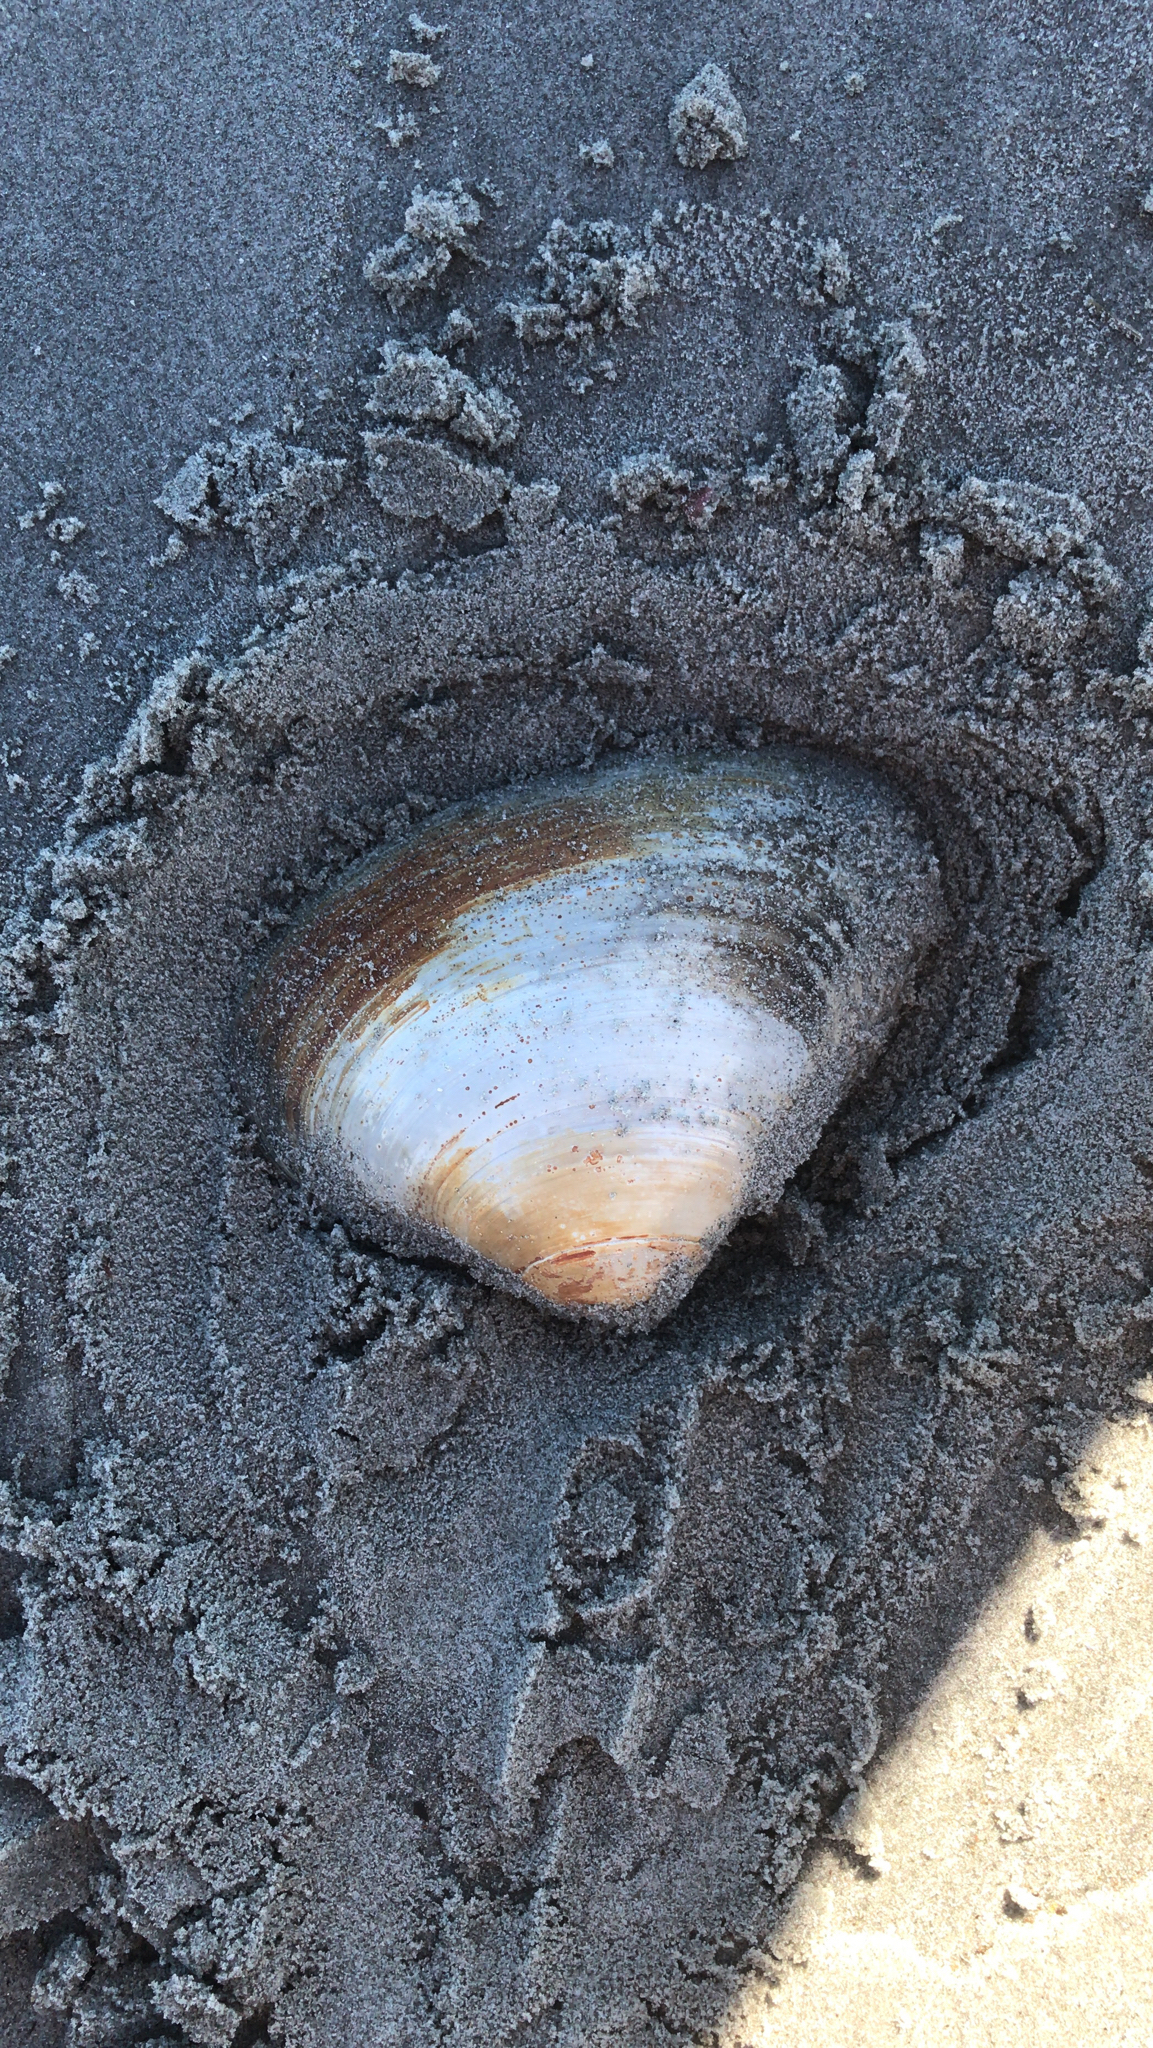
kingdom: Animalia
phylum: Mollusca
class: Bivalvia
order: Venerida
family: Mactridae
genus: Spisula
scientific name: Spisula solidissima
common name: Atlantic surf clam
